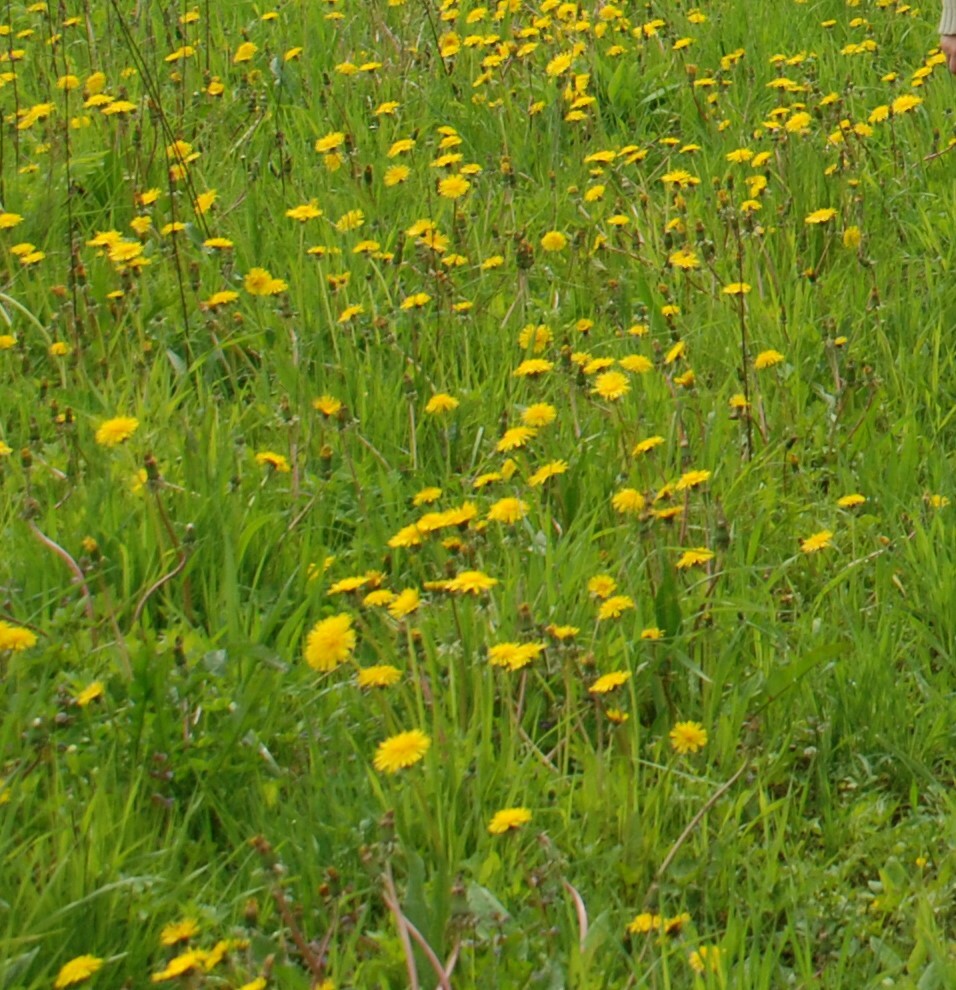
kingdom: Plantae
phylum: Tracheophyta
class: Magnoliopsida
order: Asterales
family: Asteraceae
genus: Taraxacum
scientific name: Taraxacum officinale
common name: Common dandelion
